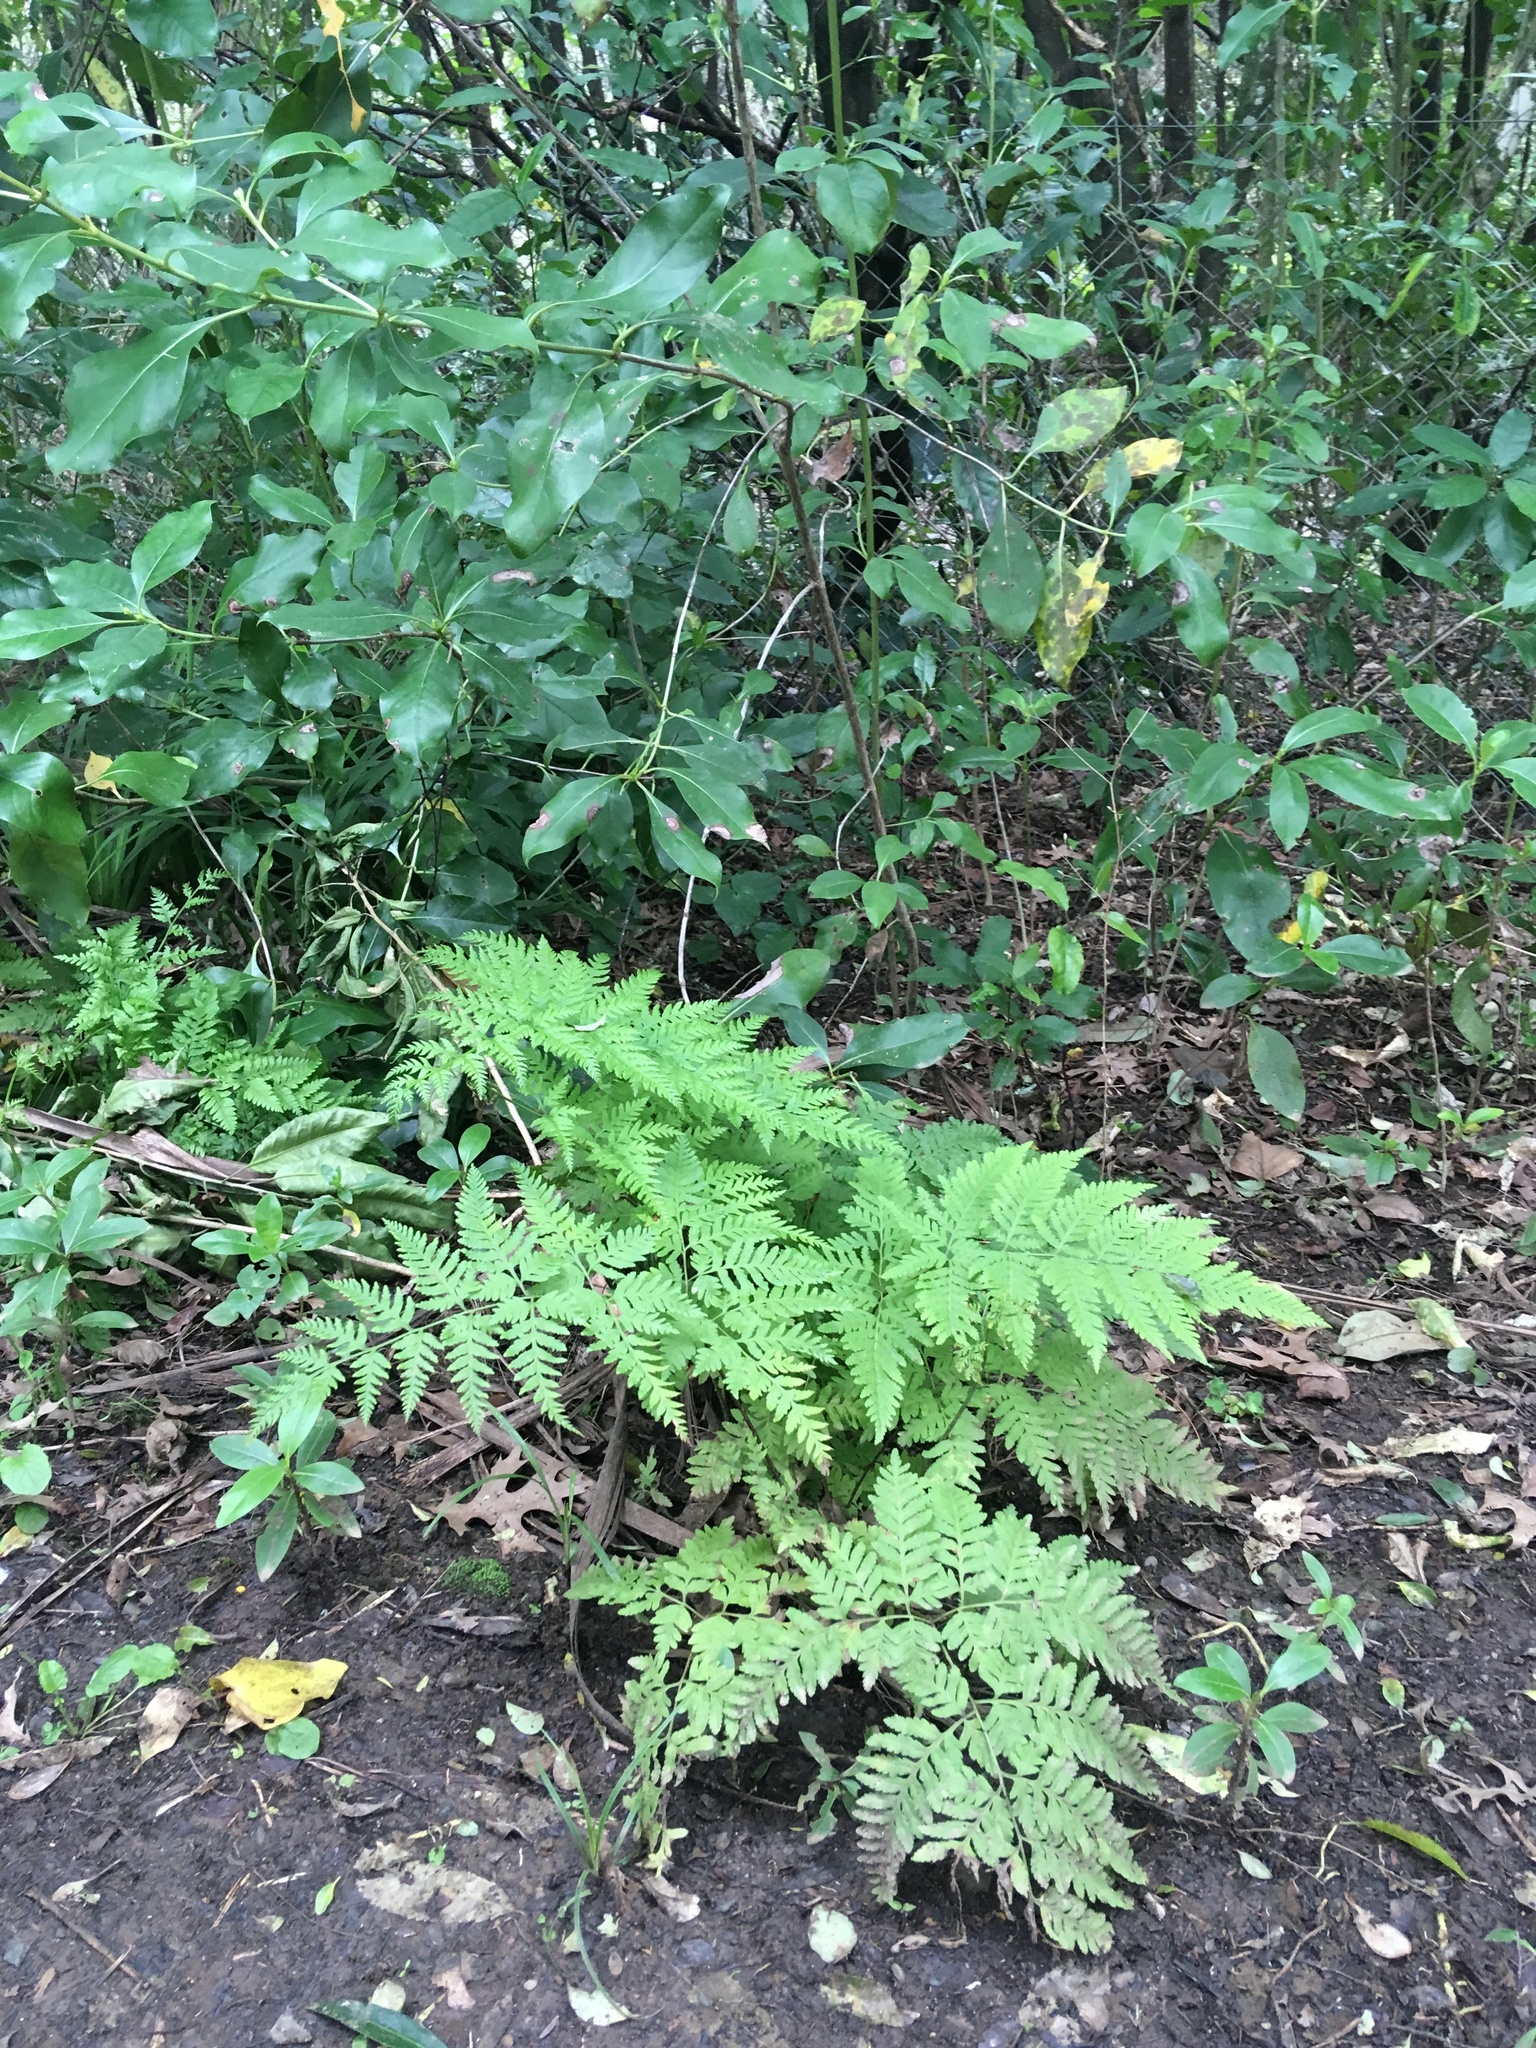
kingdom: Plantae
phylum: Tracheophyta
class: Polypodiopsida
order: Polypodiales
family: Pteridaceae
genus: Pteris
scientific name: Pteris tremula
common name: Australian brake
